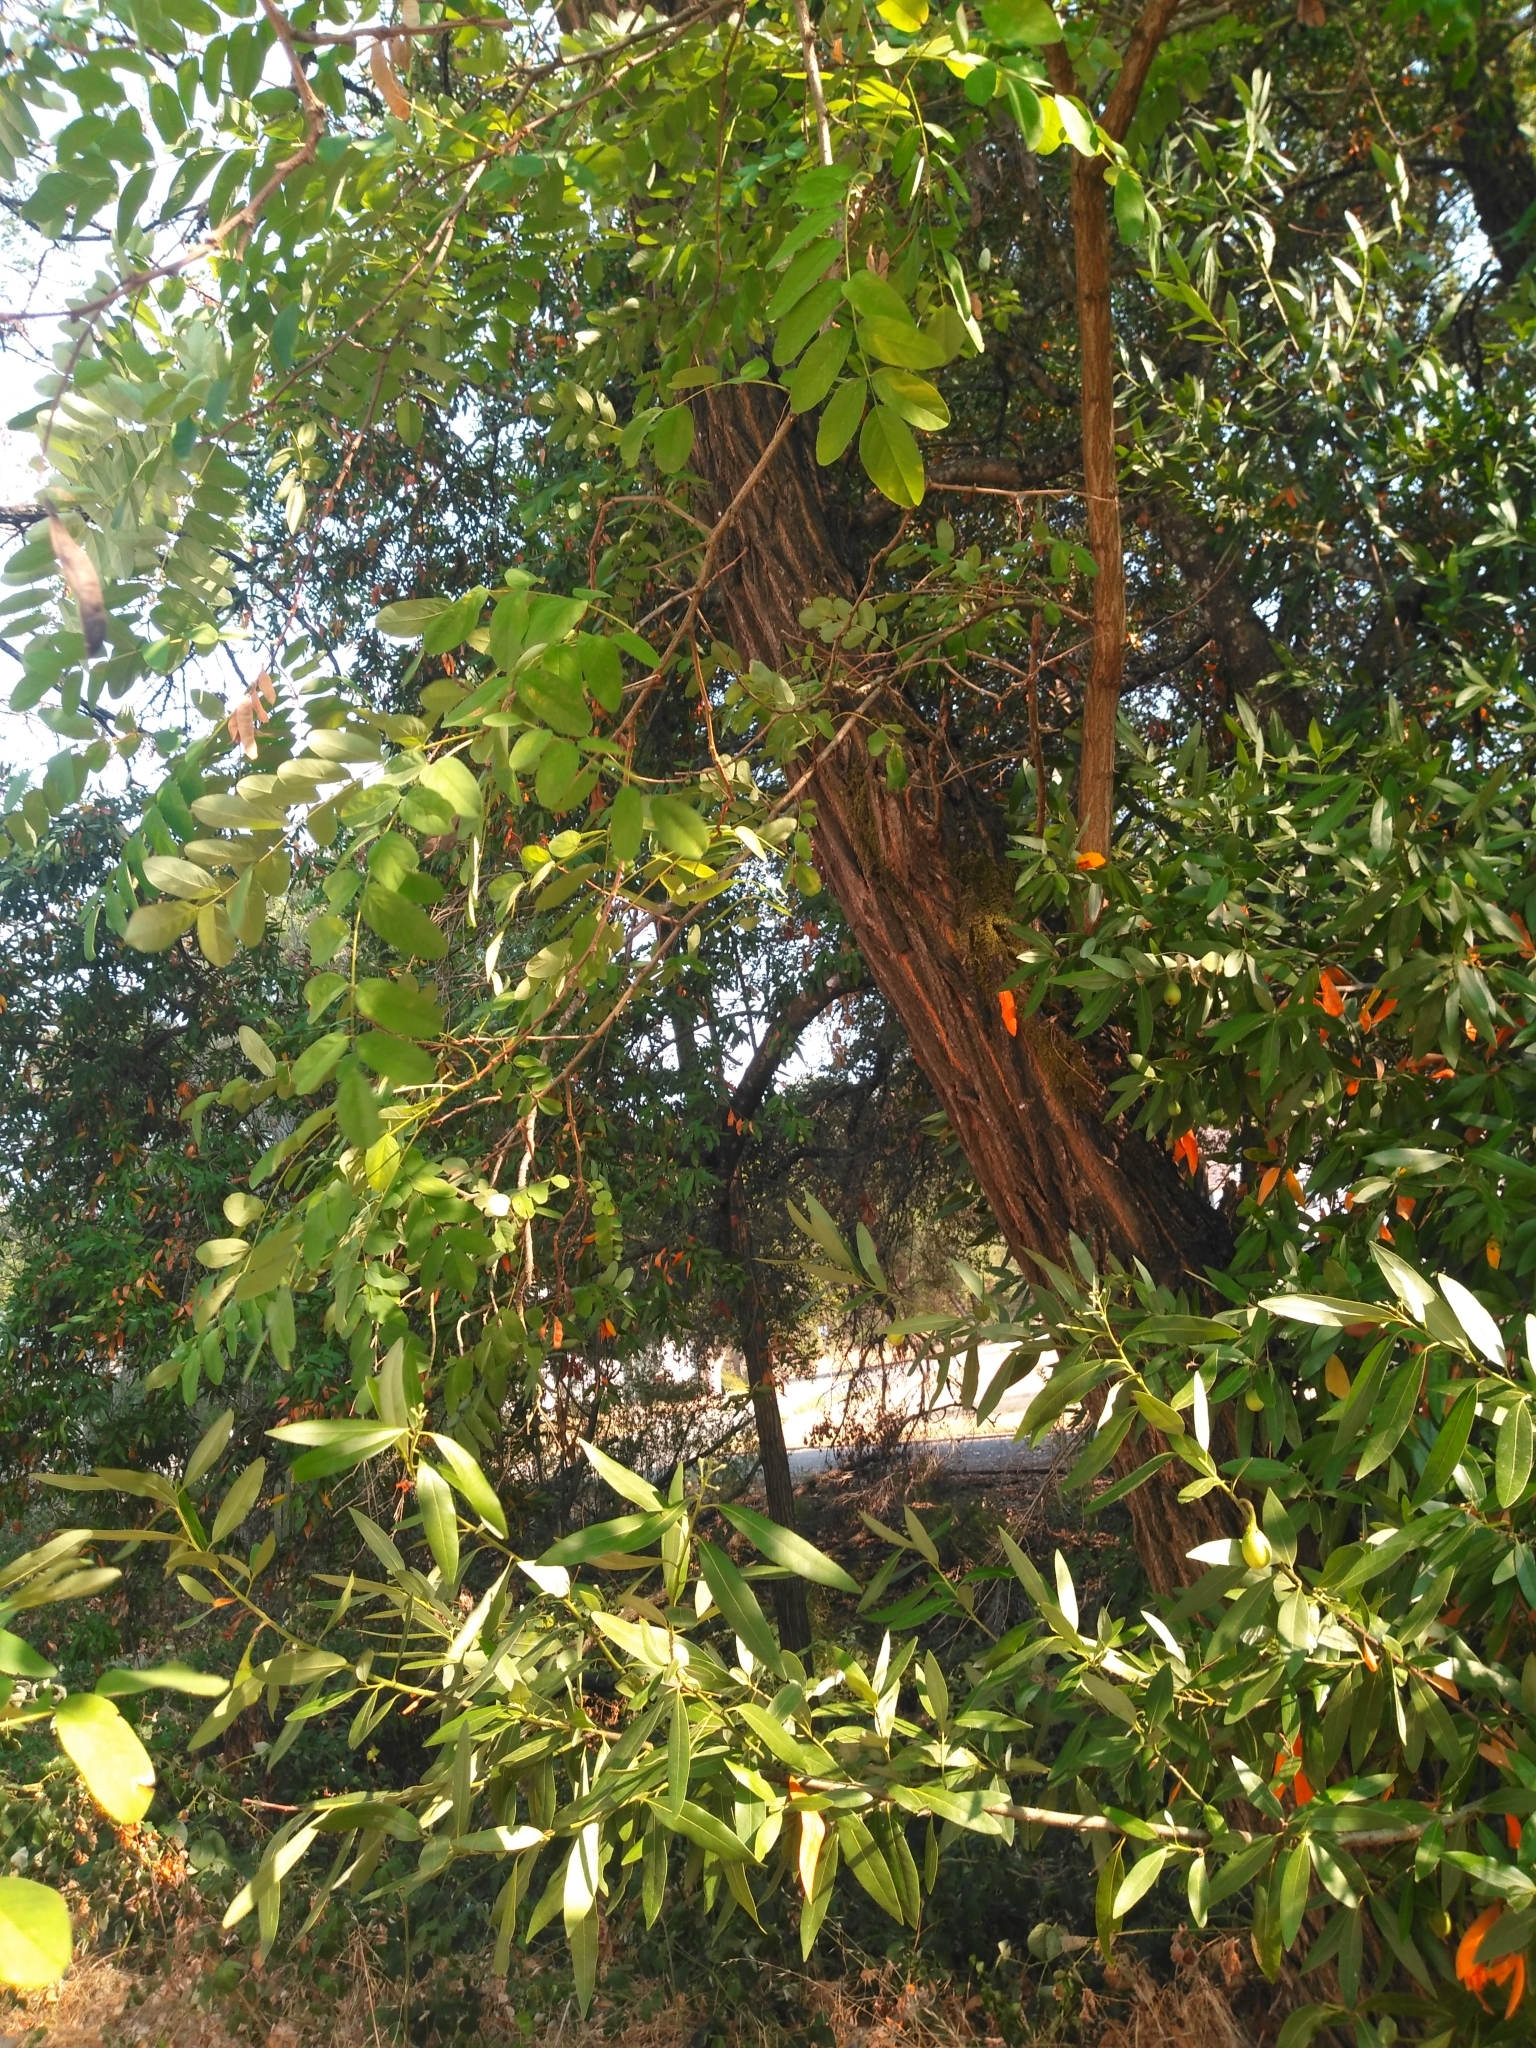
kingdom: Plantae
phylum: Tracheophyta
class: Magnoliopsida
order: Fabales
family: Fabaceae
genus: Robinia
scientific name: Robinia pseudoacacia
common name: Black locust
